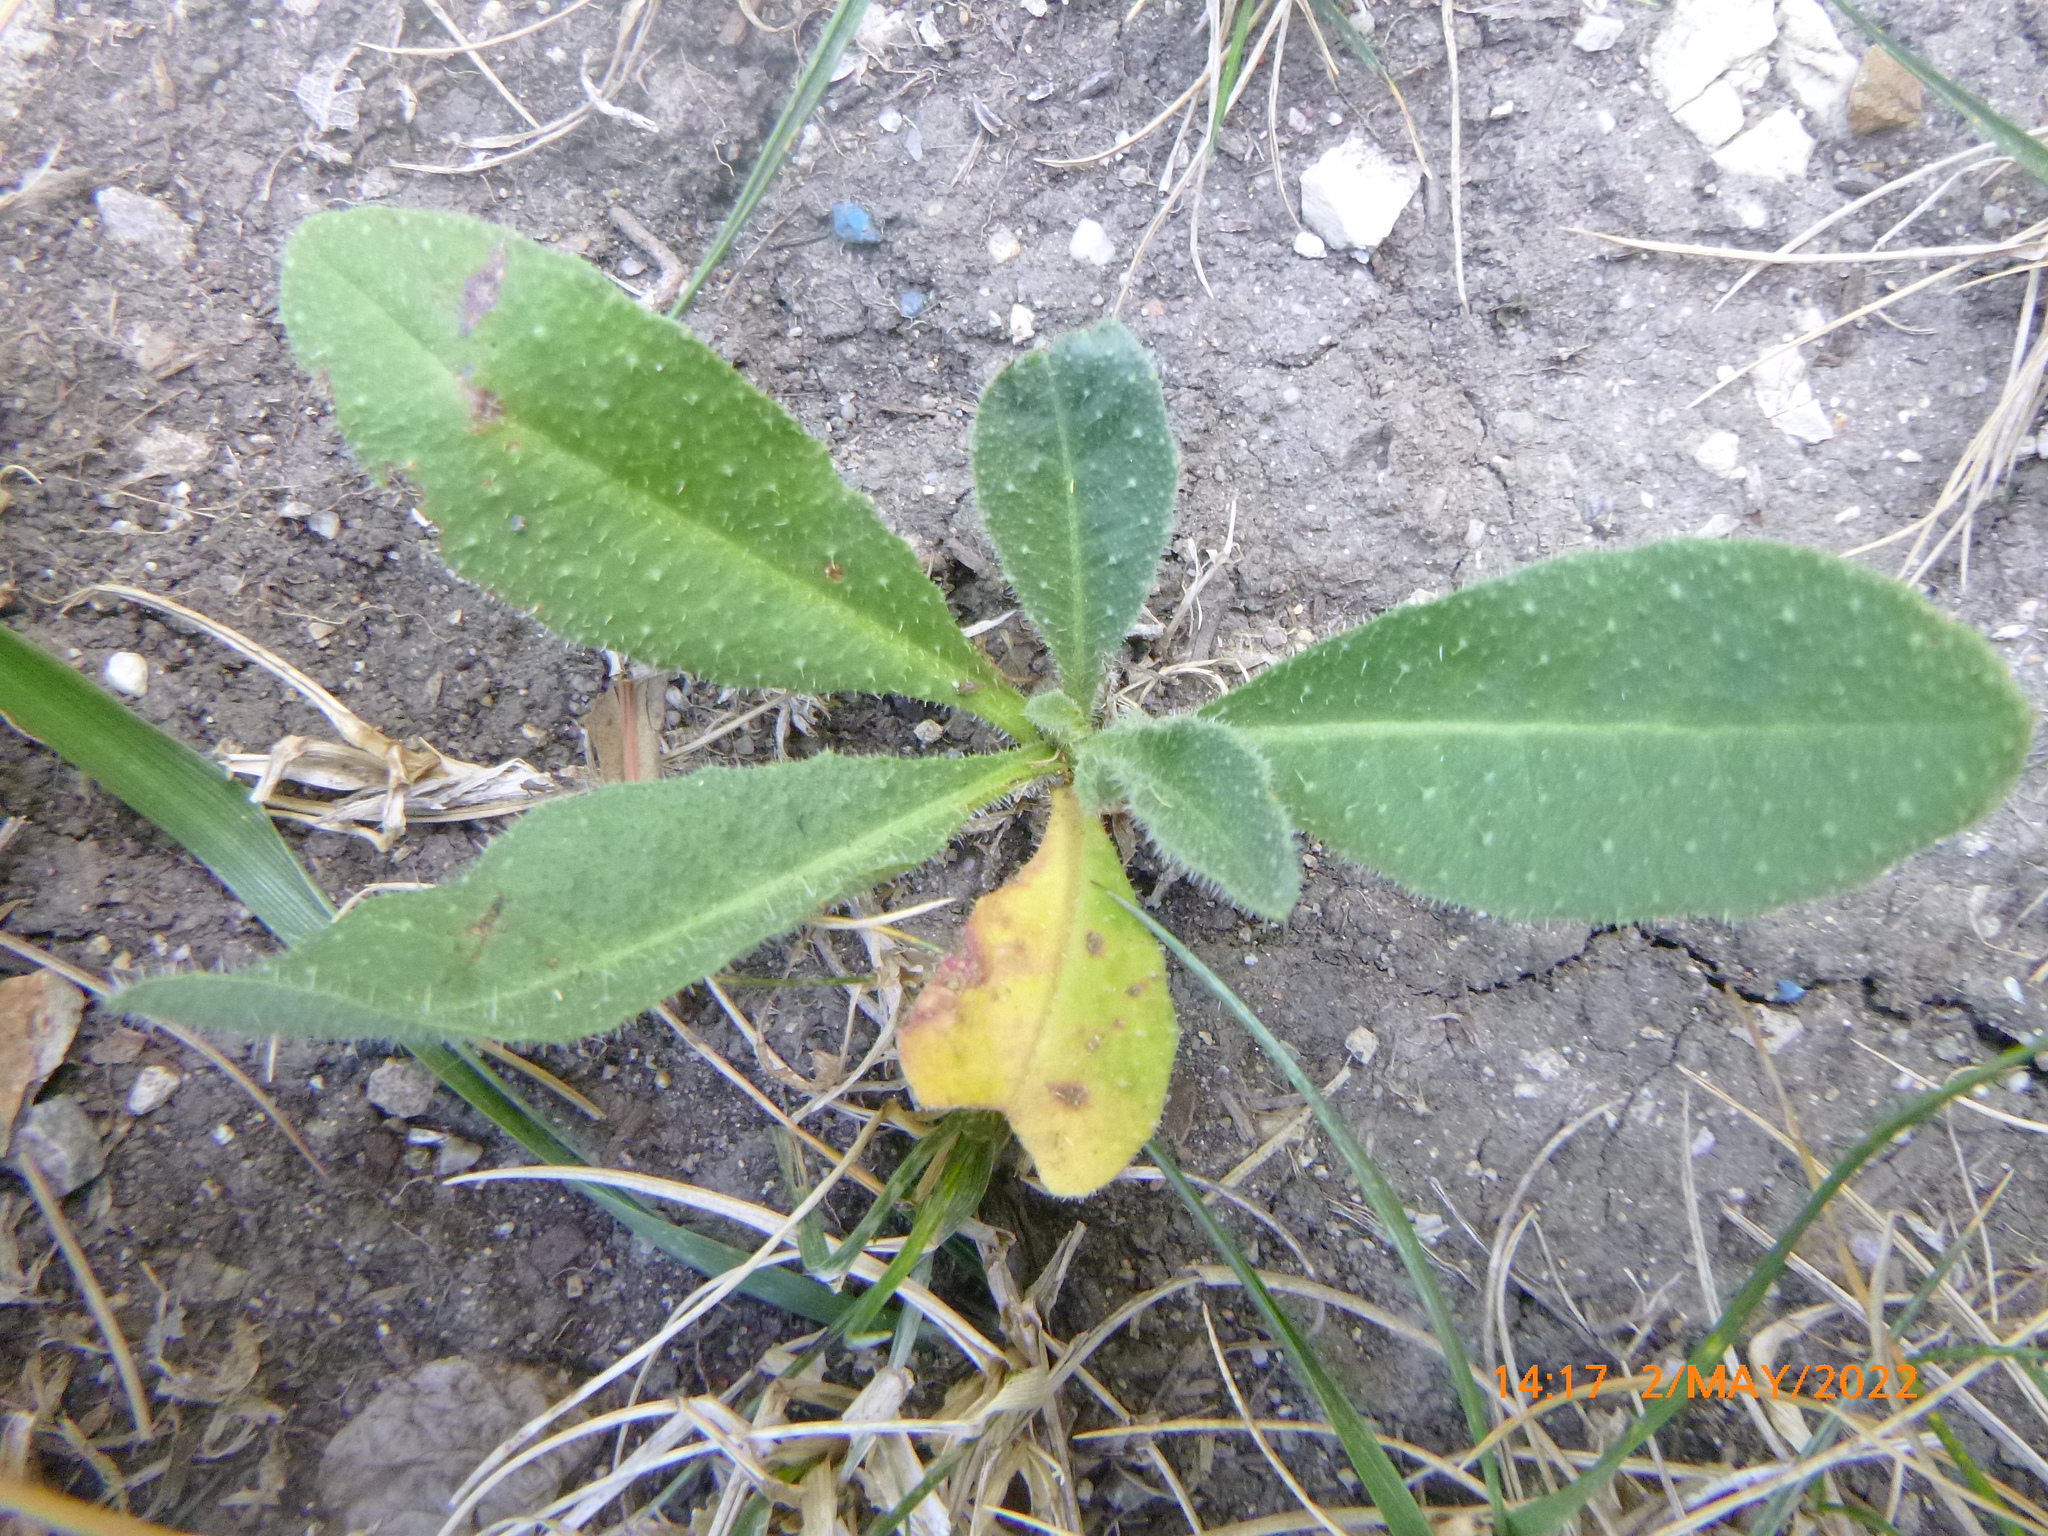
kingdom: Plantae
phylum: Tracheophyta
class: Magnoliopsida
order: Asterales
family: Asteraceae
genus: Helminthotheca
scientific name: Helminthotheca echioides
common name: Ox-tongue
